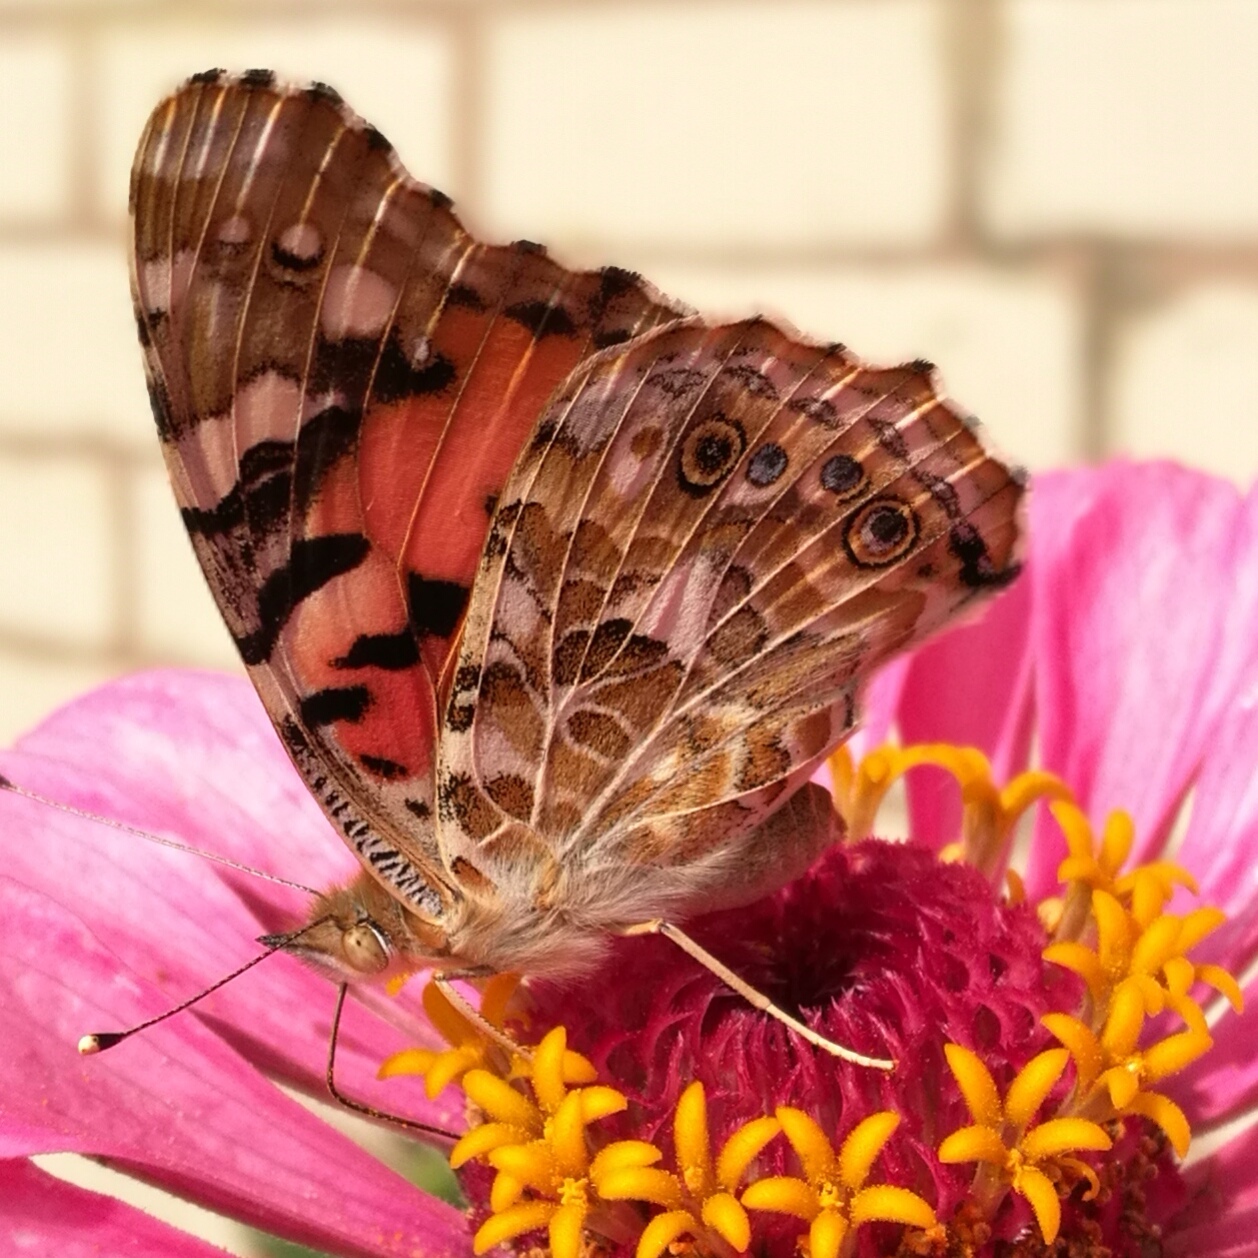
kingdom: Animalia
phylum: Arthropoda
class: Insecta
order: Lepidoptera
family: Nymphalidae
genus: Vanessa
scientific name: Vanessa cardui
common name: Painted lady
